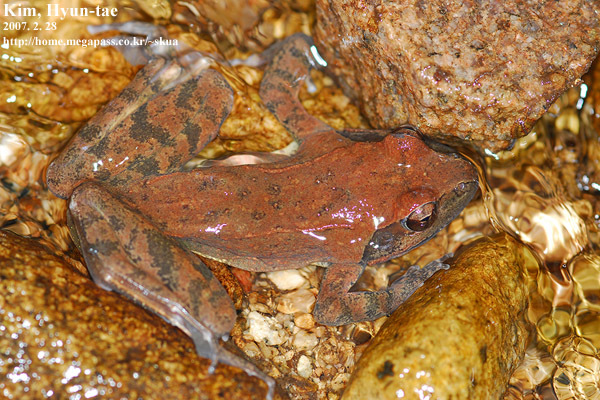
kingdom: Animalia
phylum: Chordata
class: Amphibia
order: Anura
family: Ranidae
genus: Rana
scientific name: Rana huanrenensis
